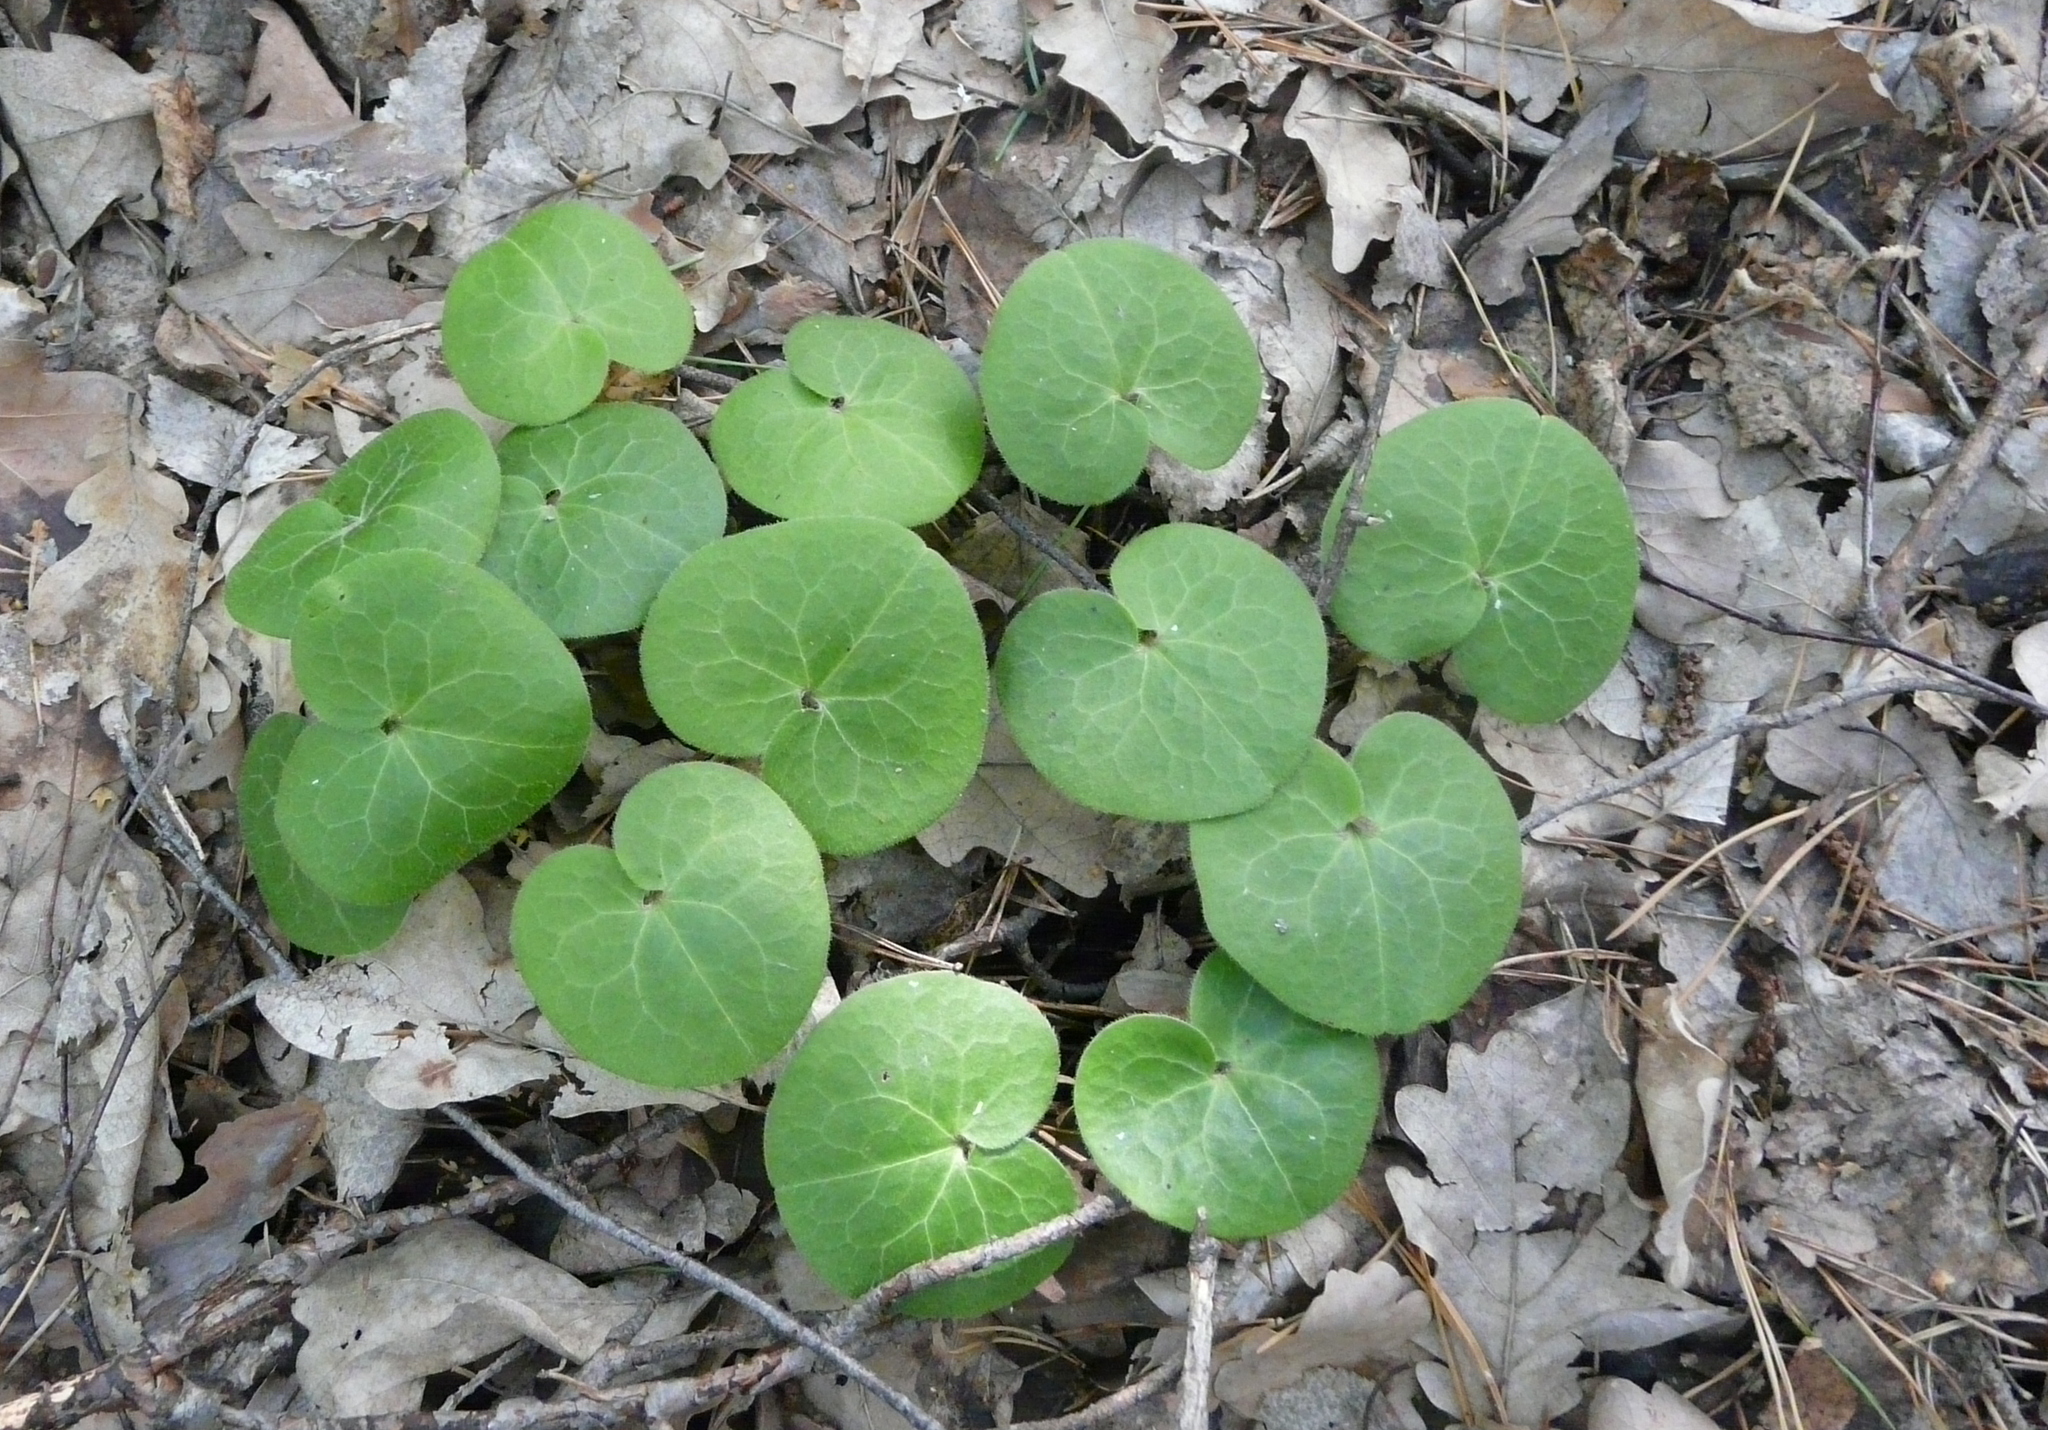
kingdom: Plantae
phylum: Tracheophyta
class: Magnoliopsida
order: Piperales
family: Aristolochiaceae
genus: Asarum
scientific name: Asarum europaeum
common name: Asarabacca
